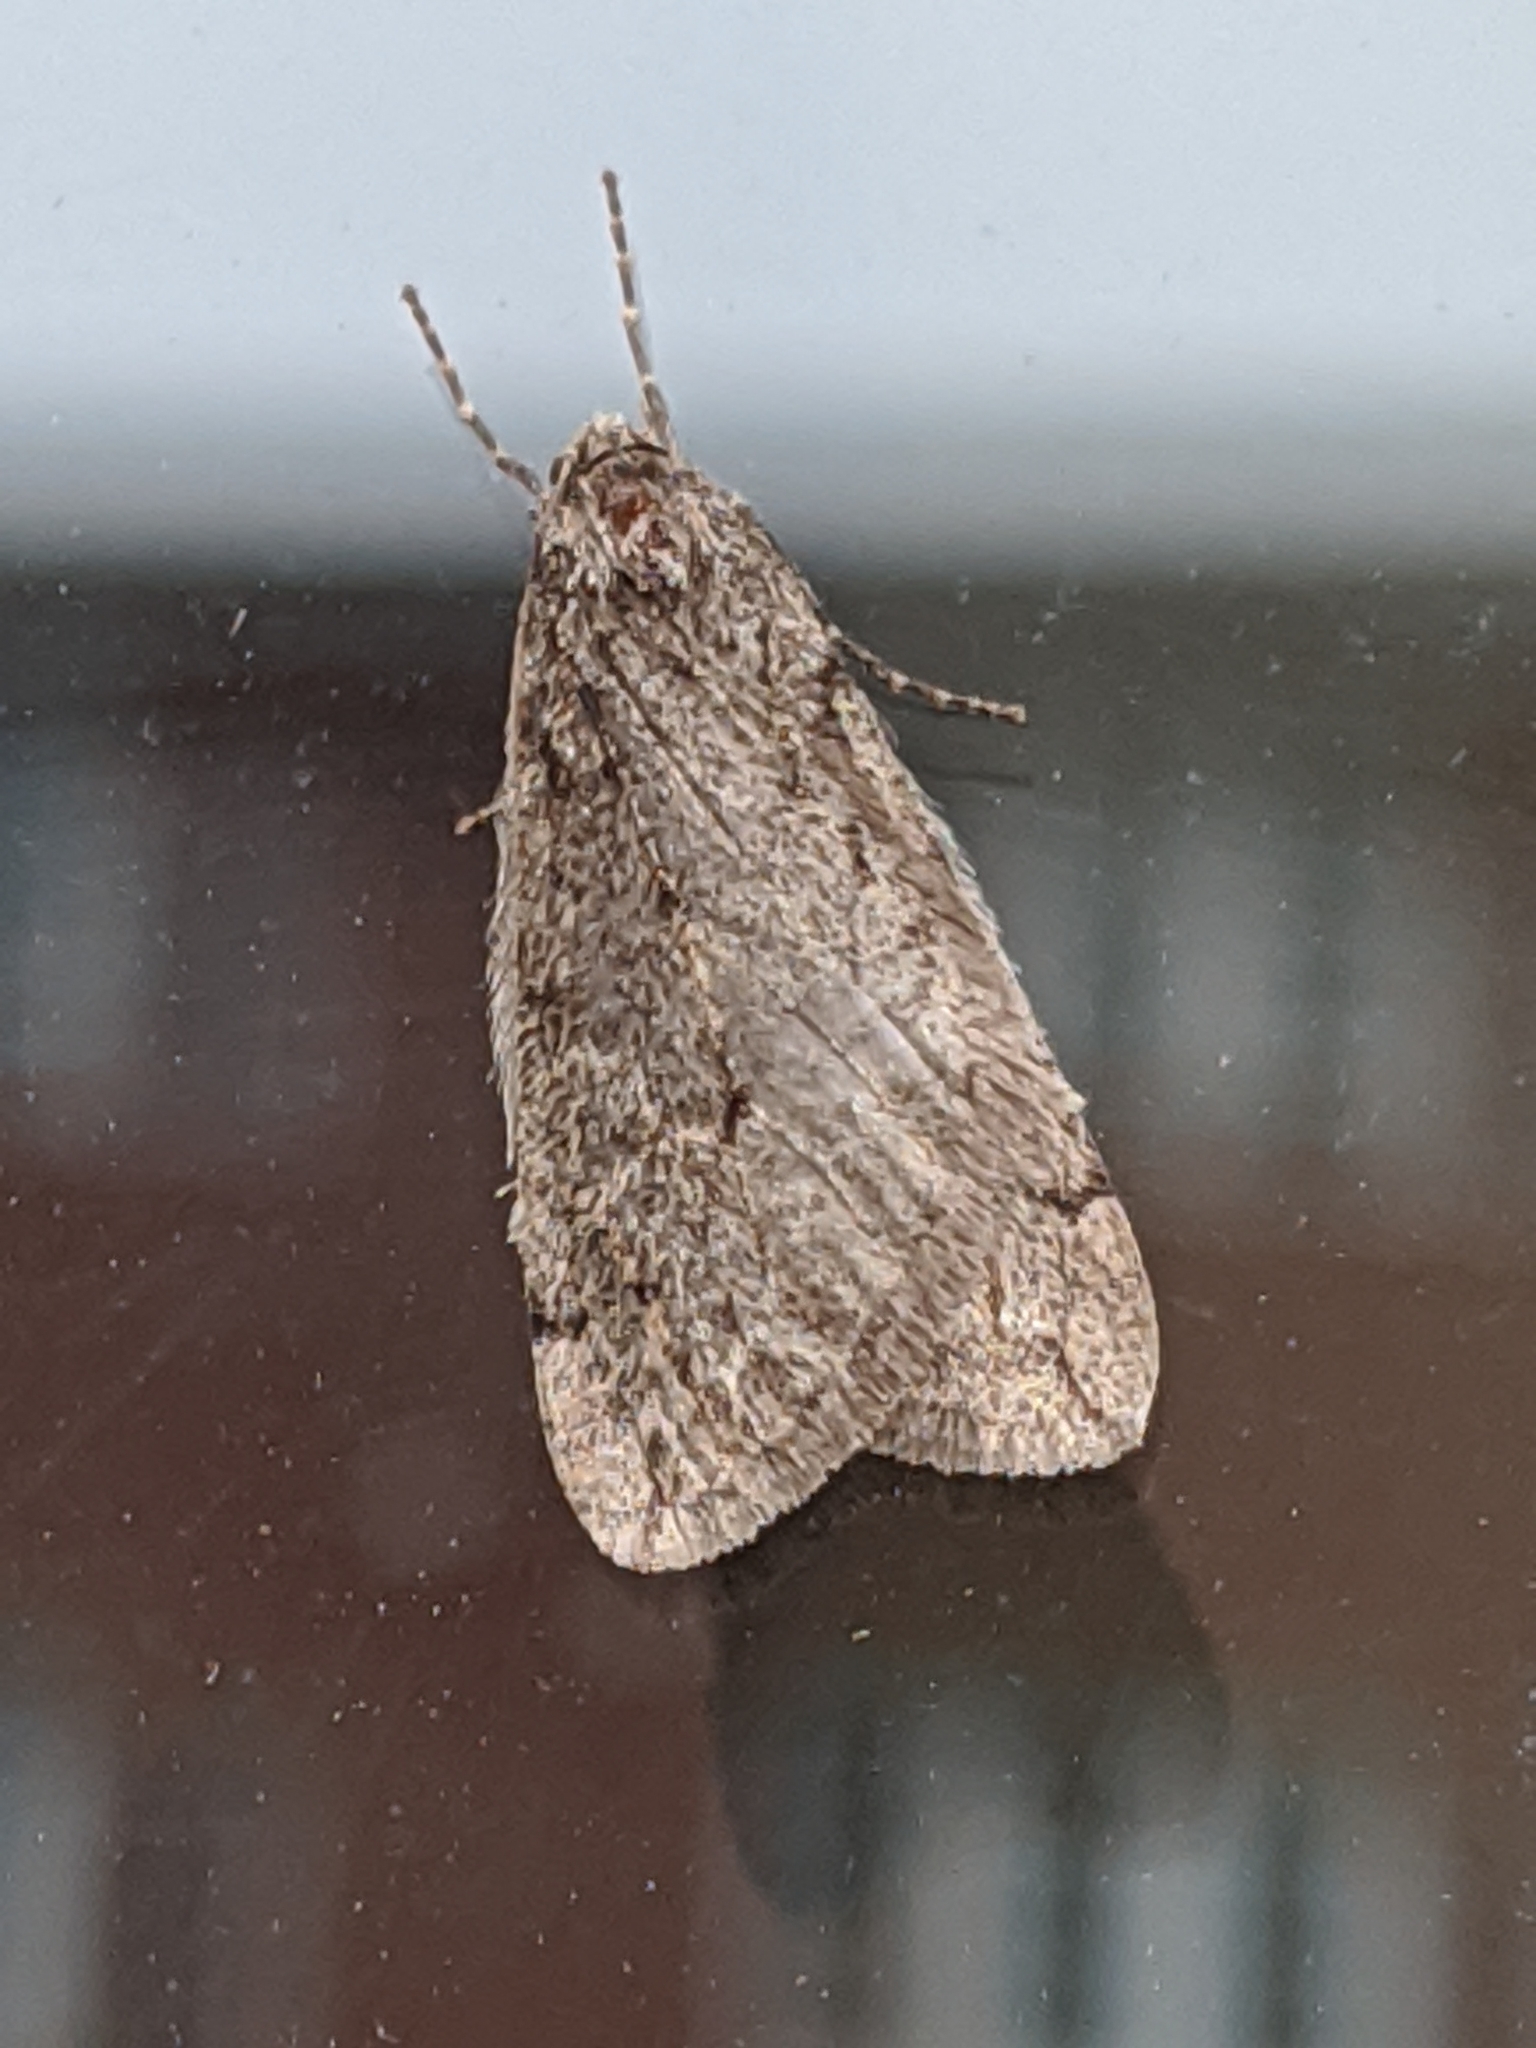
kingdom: Animalia
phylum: Arthropoda
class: Insecta
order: Lepidoptera
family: Geometridae
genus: Paleacrita
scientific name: Paleacrita vernata
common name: Spring cankerworm
